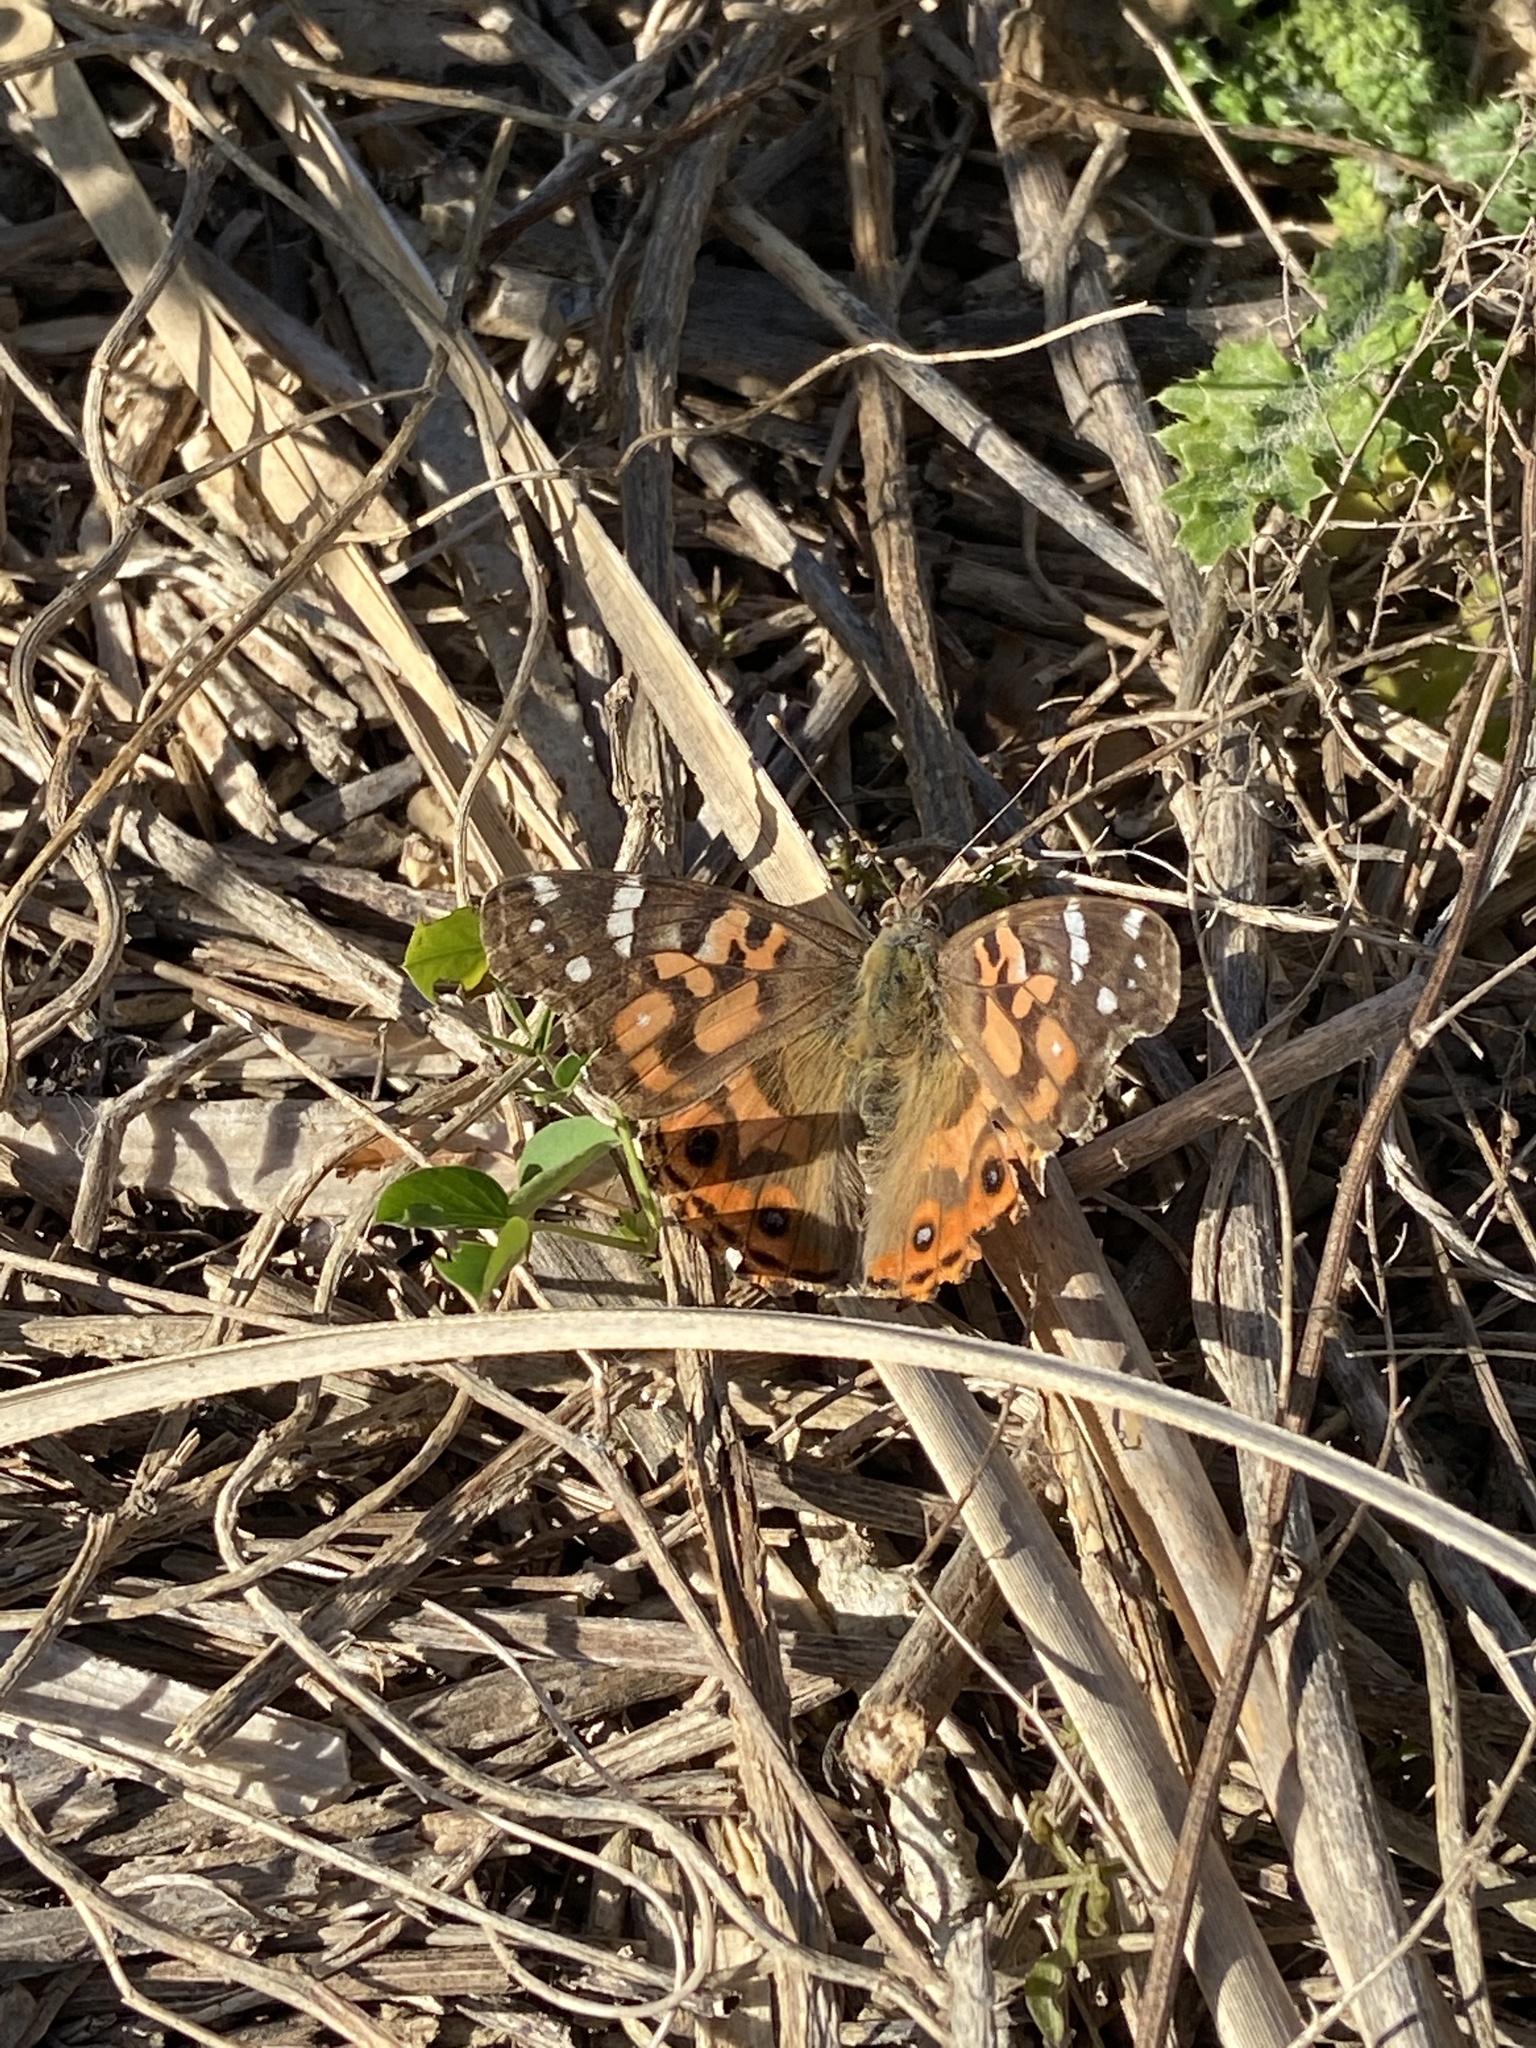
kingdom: Animalia
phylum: Arthropoda
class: Insecta
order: Lepidoptera
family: Nymphalidae
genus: Vanessa
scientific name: Vanessa braziliensis
